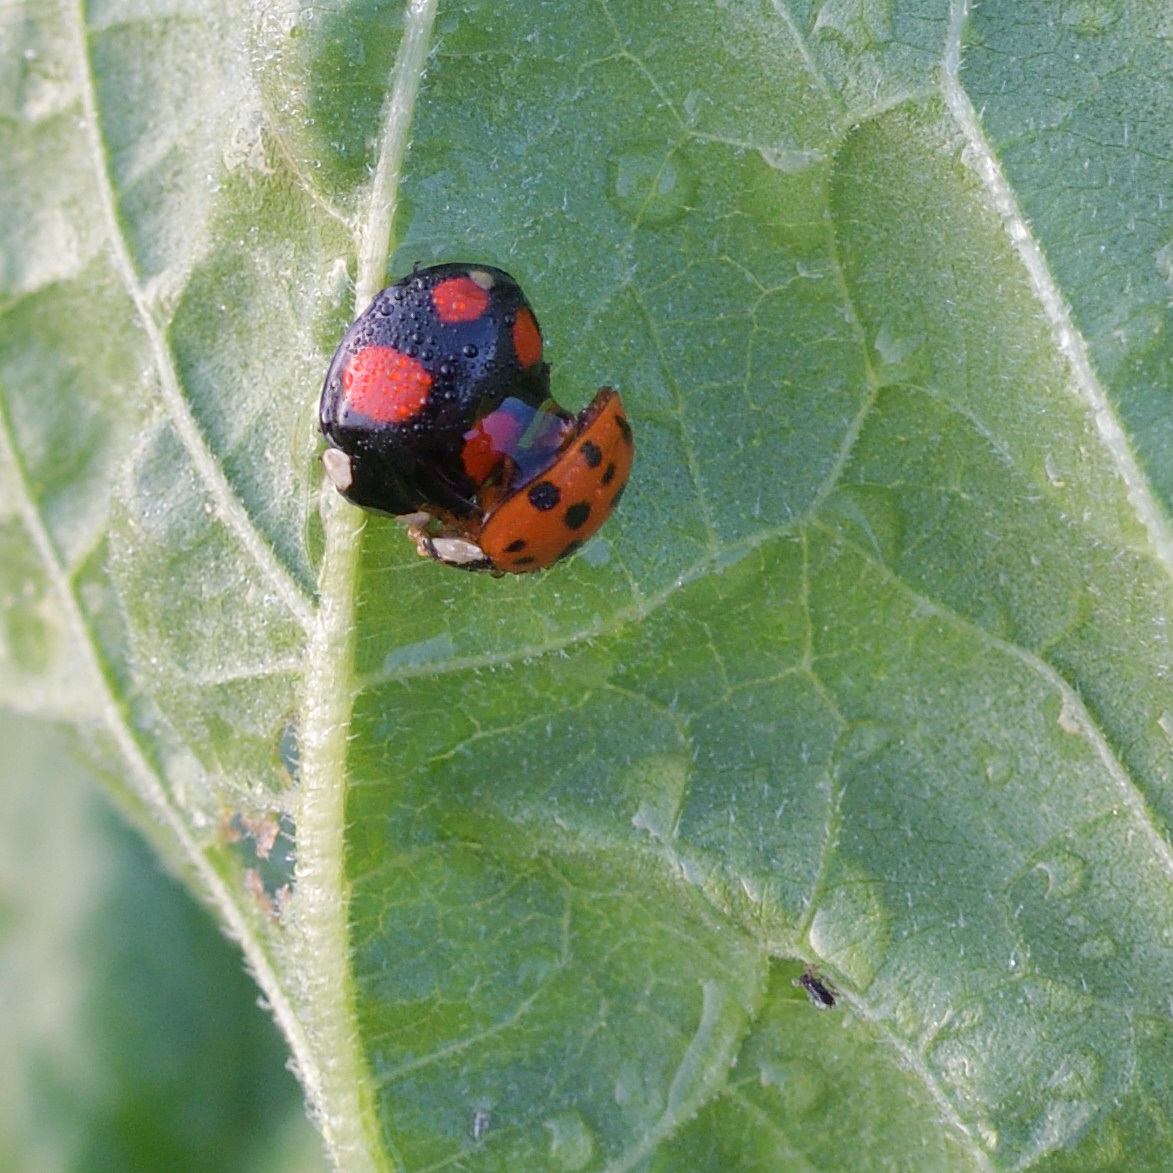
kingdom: Animalia
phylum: Arthropoda
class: Insecta
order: Coleoptera
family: Coccinellidae
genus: Harmonia
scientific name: Harmonia axyridis
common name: Harlequin ladybird
